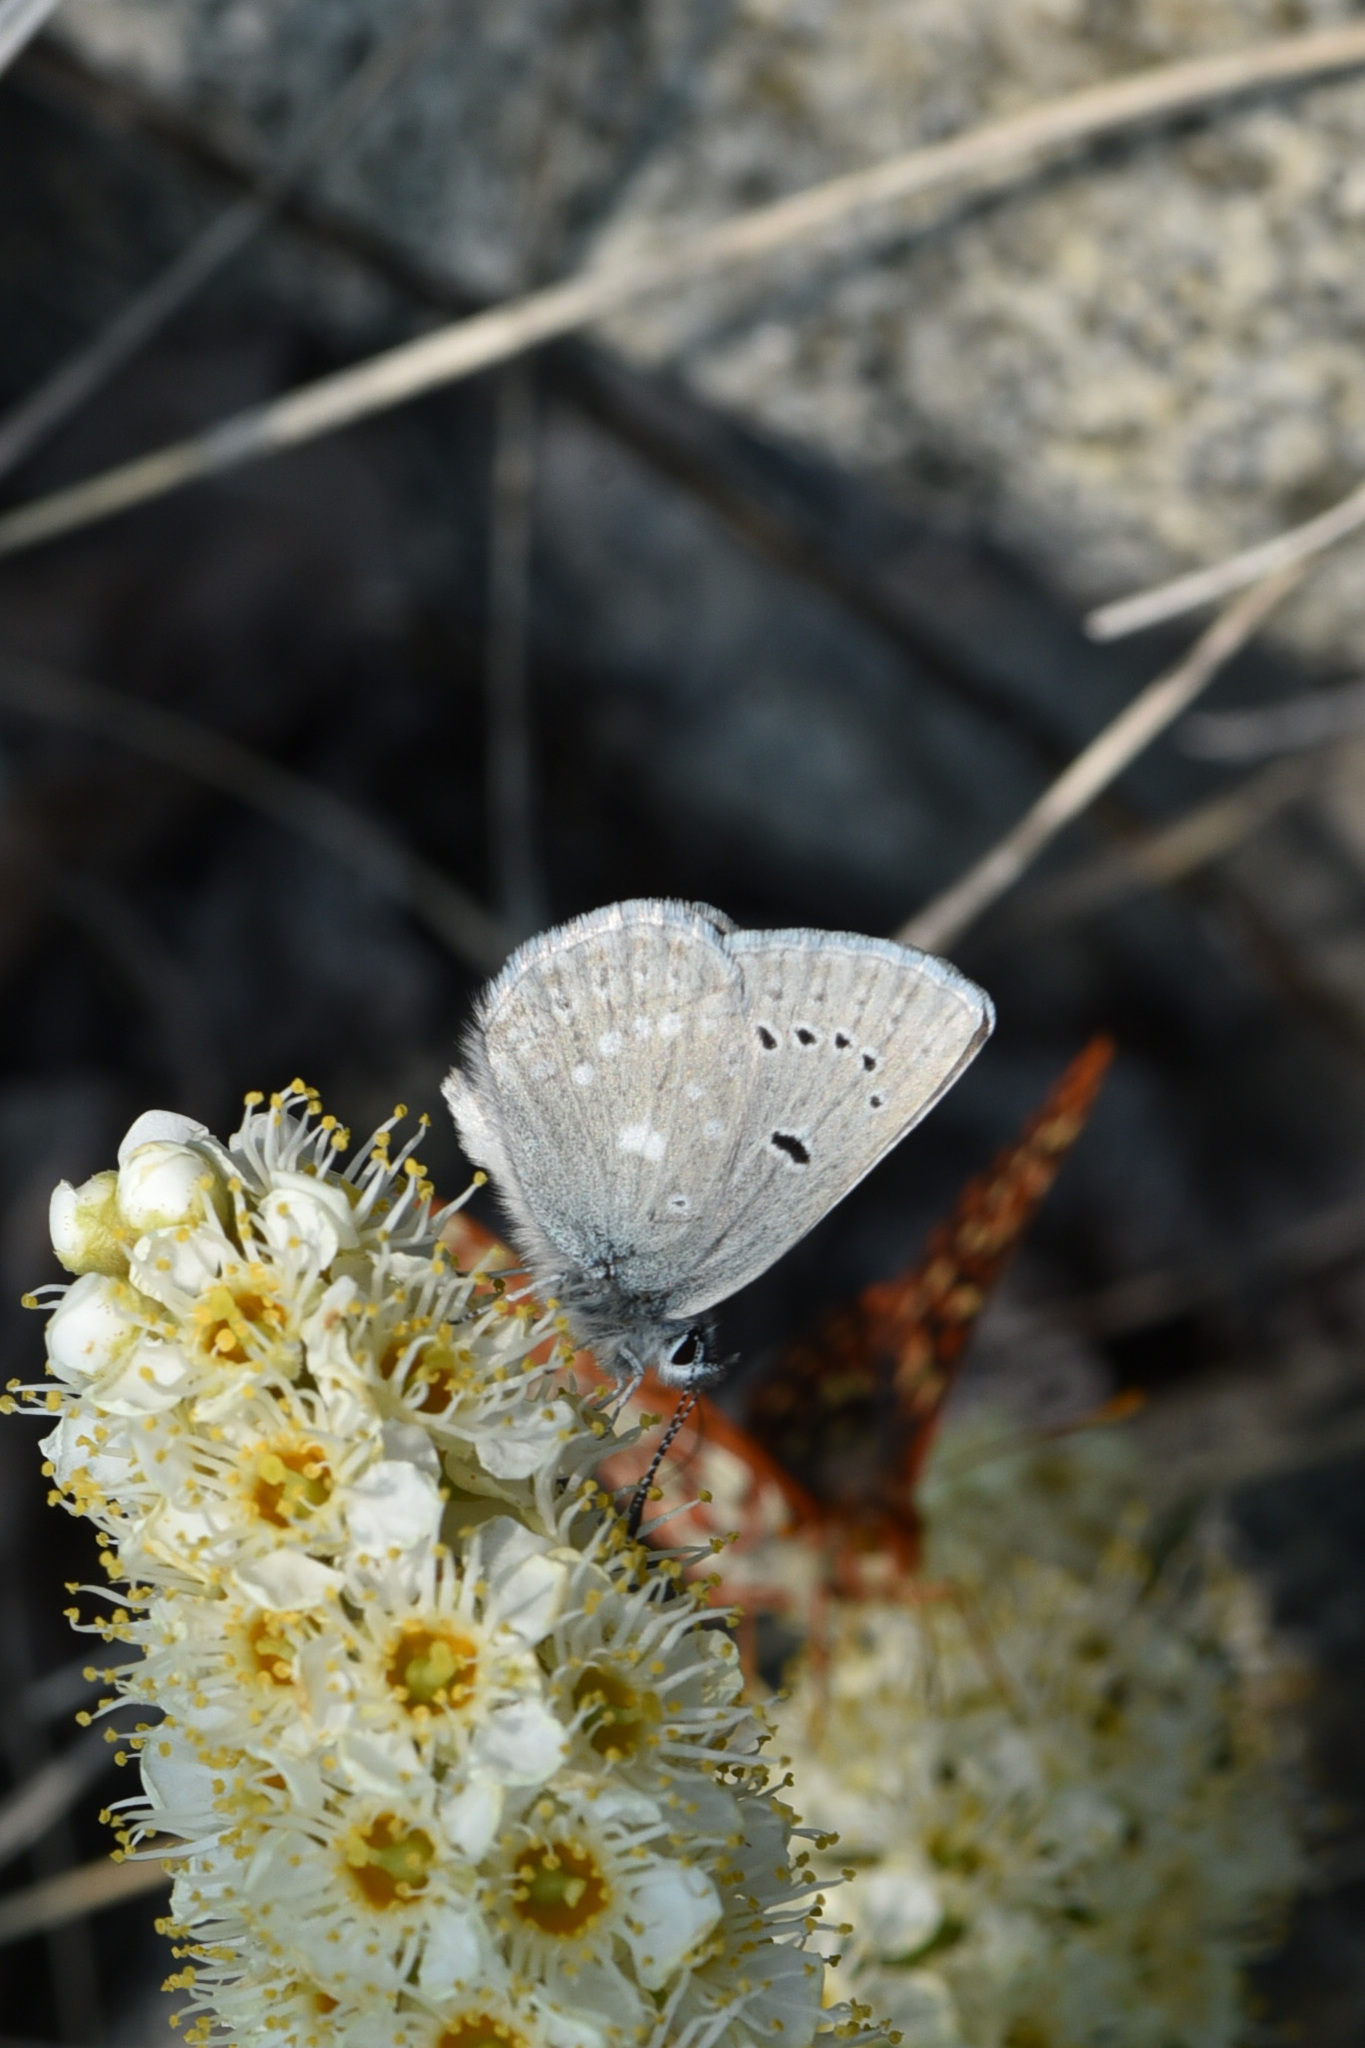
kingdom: Animalia
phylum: Arthropoda
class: Insecta
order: Lepidoptera
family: Lycaenidae
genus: Icaricia
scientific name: Icaricia icarioides
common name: Boisduval's blue
